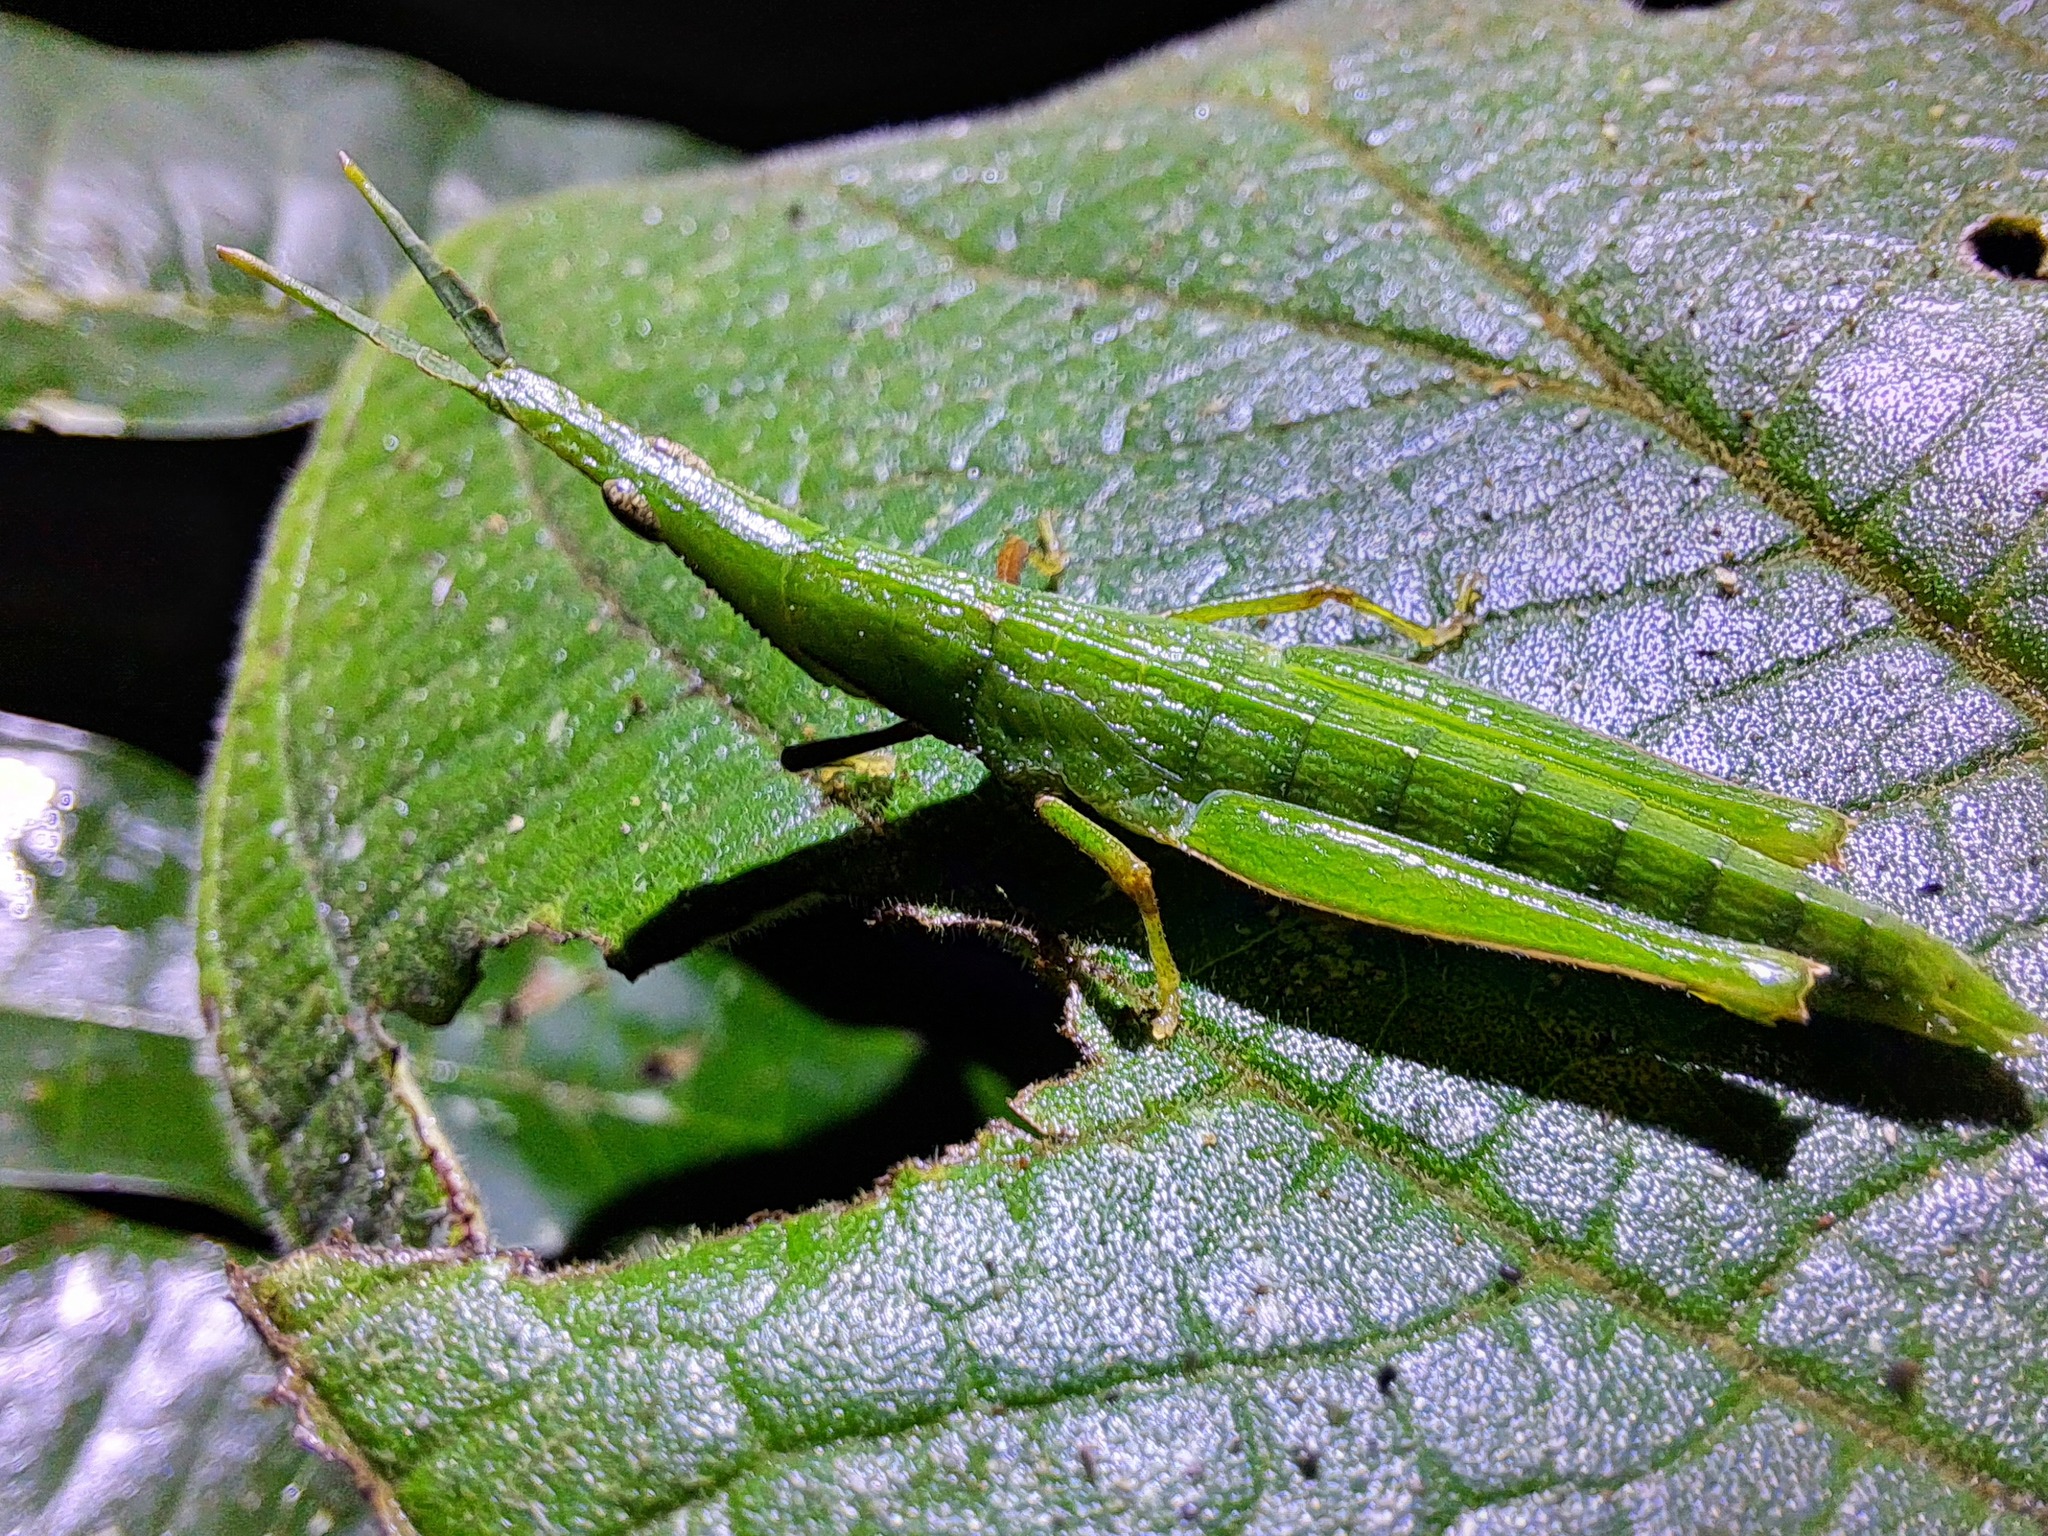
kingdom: Animalia
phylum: Arthropoda
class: Insecta
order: Orthoptera
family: Pyrgomorphidae
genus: Omura
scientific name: Omura congrua
